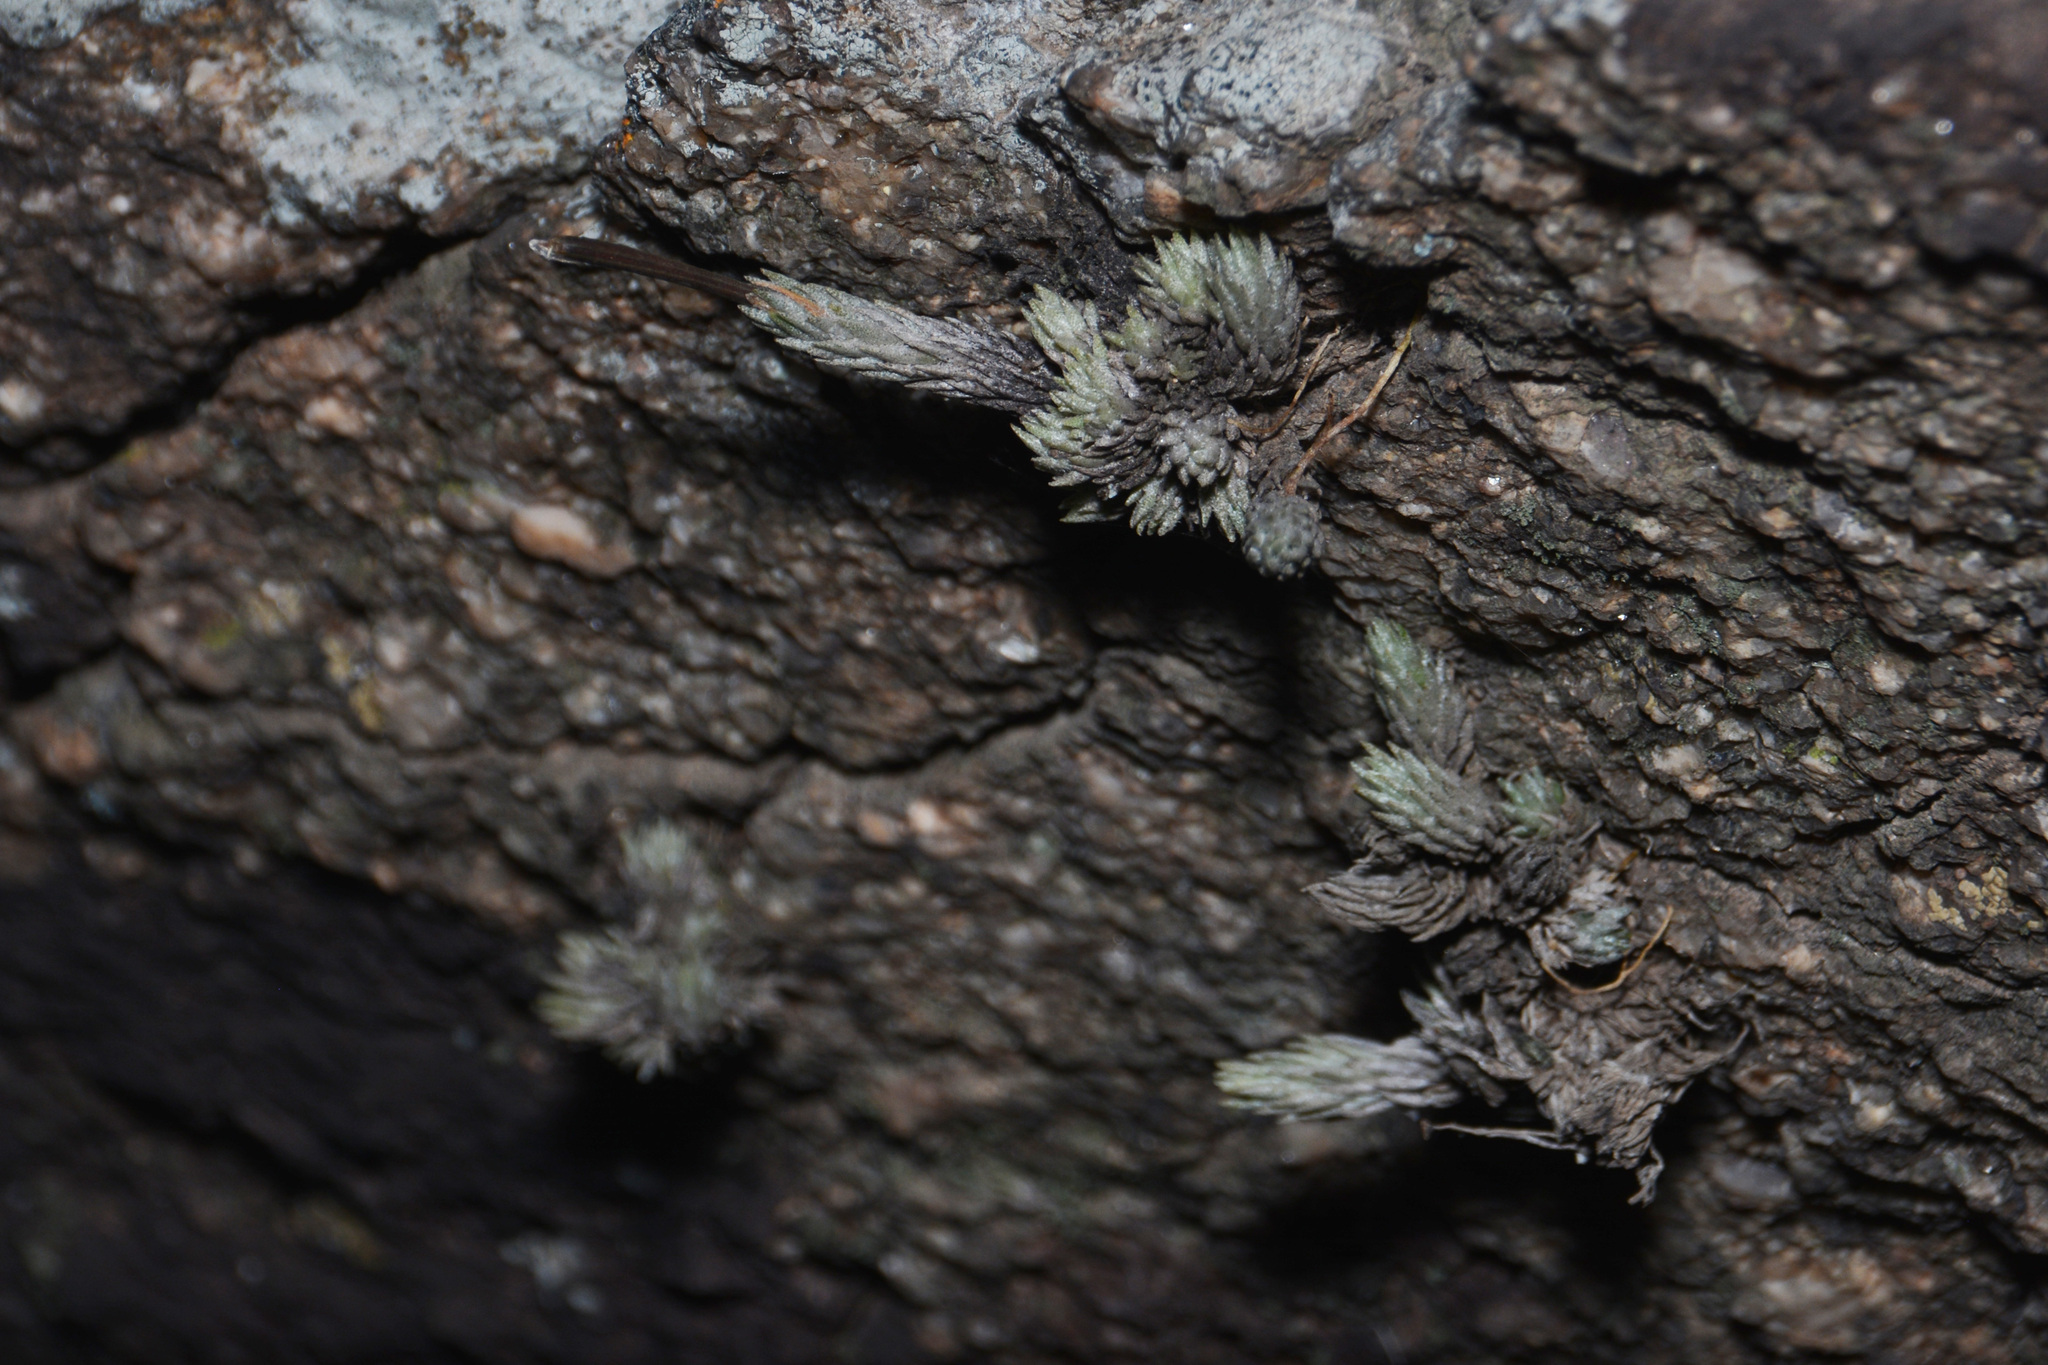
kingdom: Plantae
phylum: Tracheophyta
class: Liliopsida
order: Poales
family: Bromeliaceae
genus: Tillandsia
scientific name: Tillandsia minutiflora
